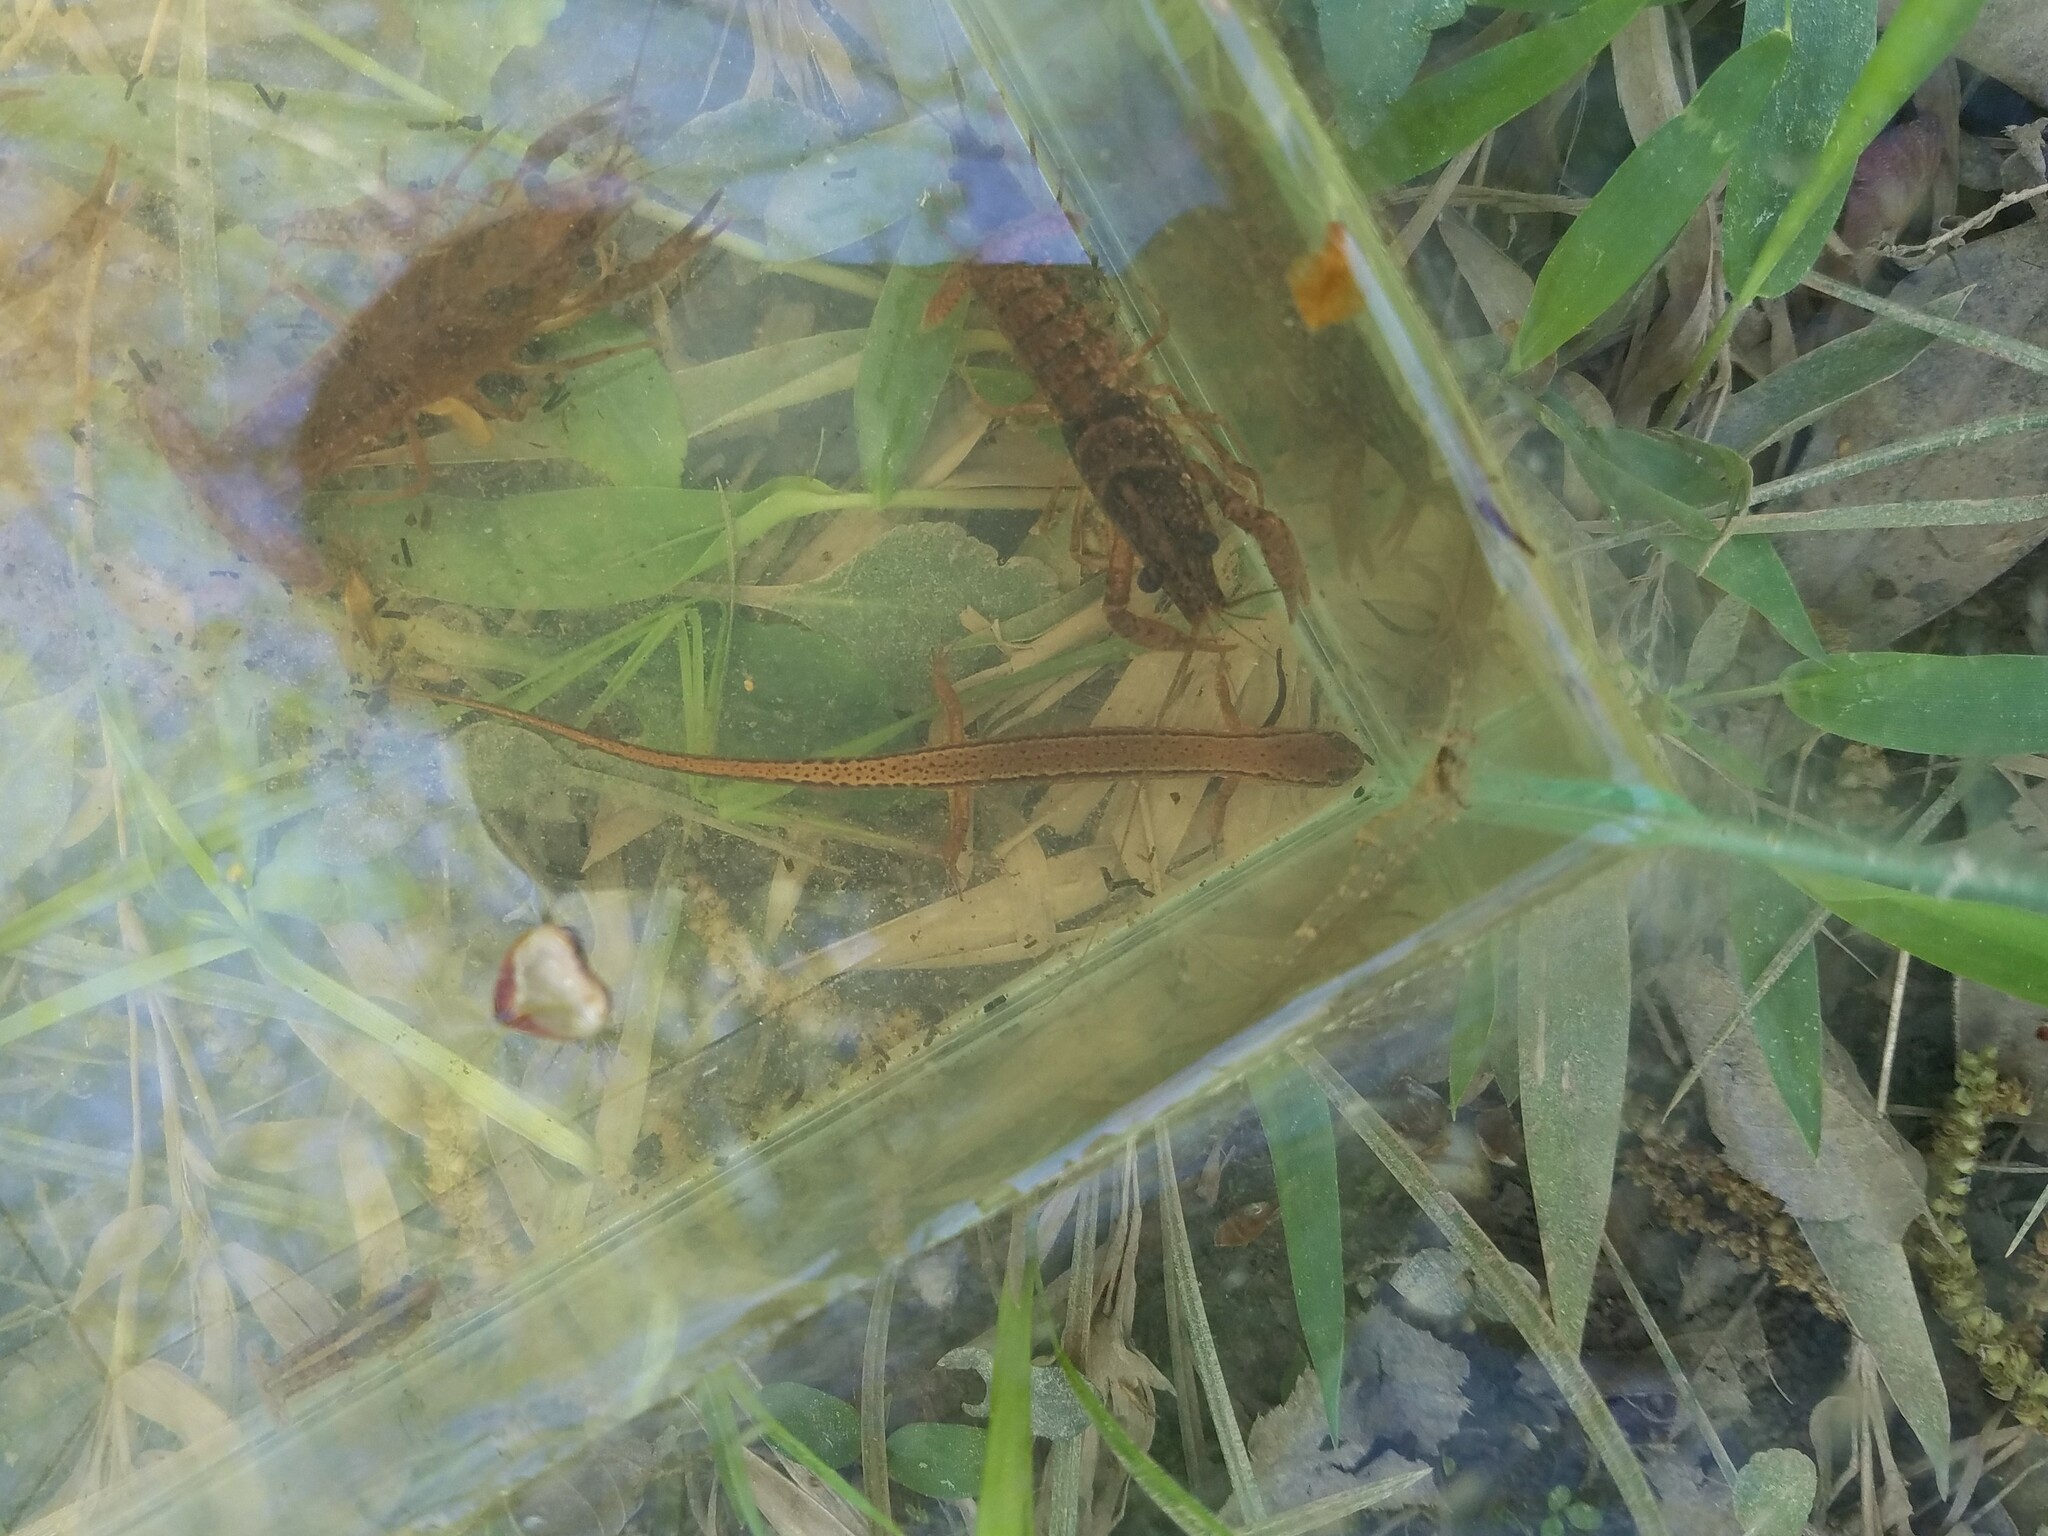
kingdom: Animalia
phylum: Chordata
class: Amphibia
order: Caudata
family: Plethodontidae
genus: Eurycea
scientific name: Eurycea cirrigera
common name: Southern two-lined salamander
